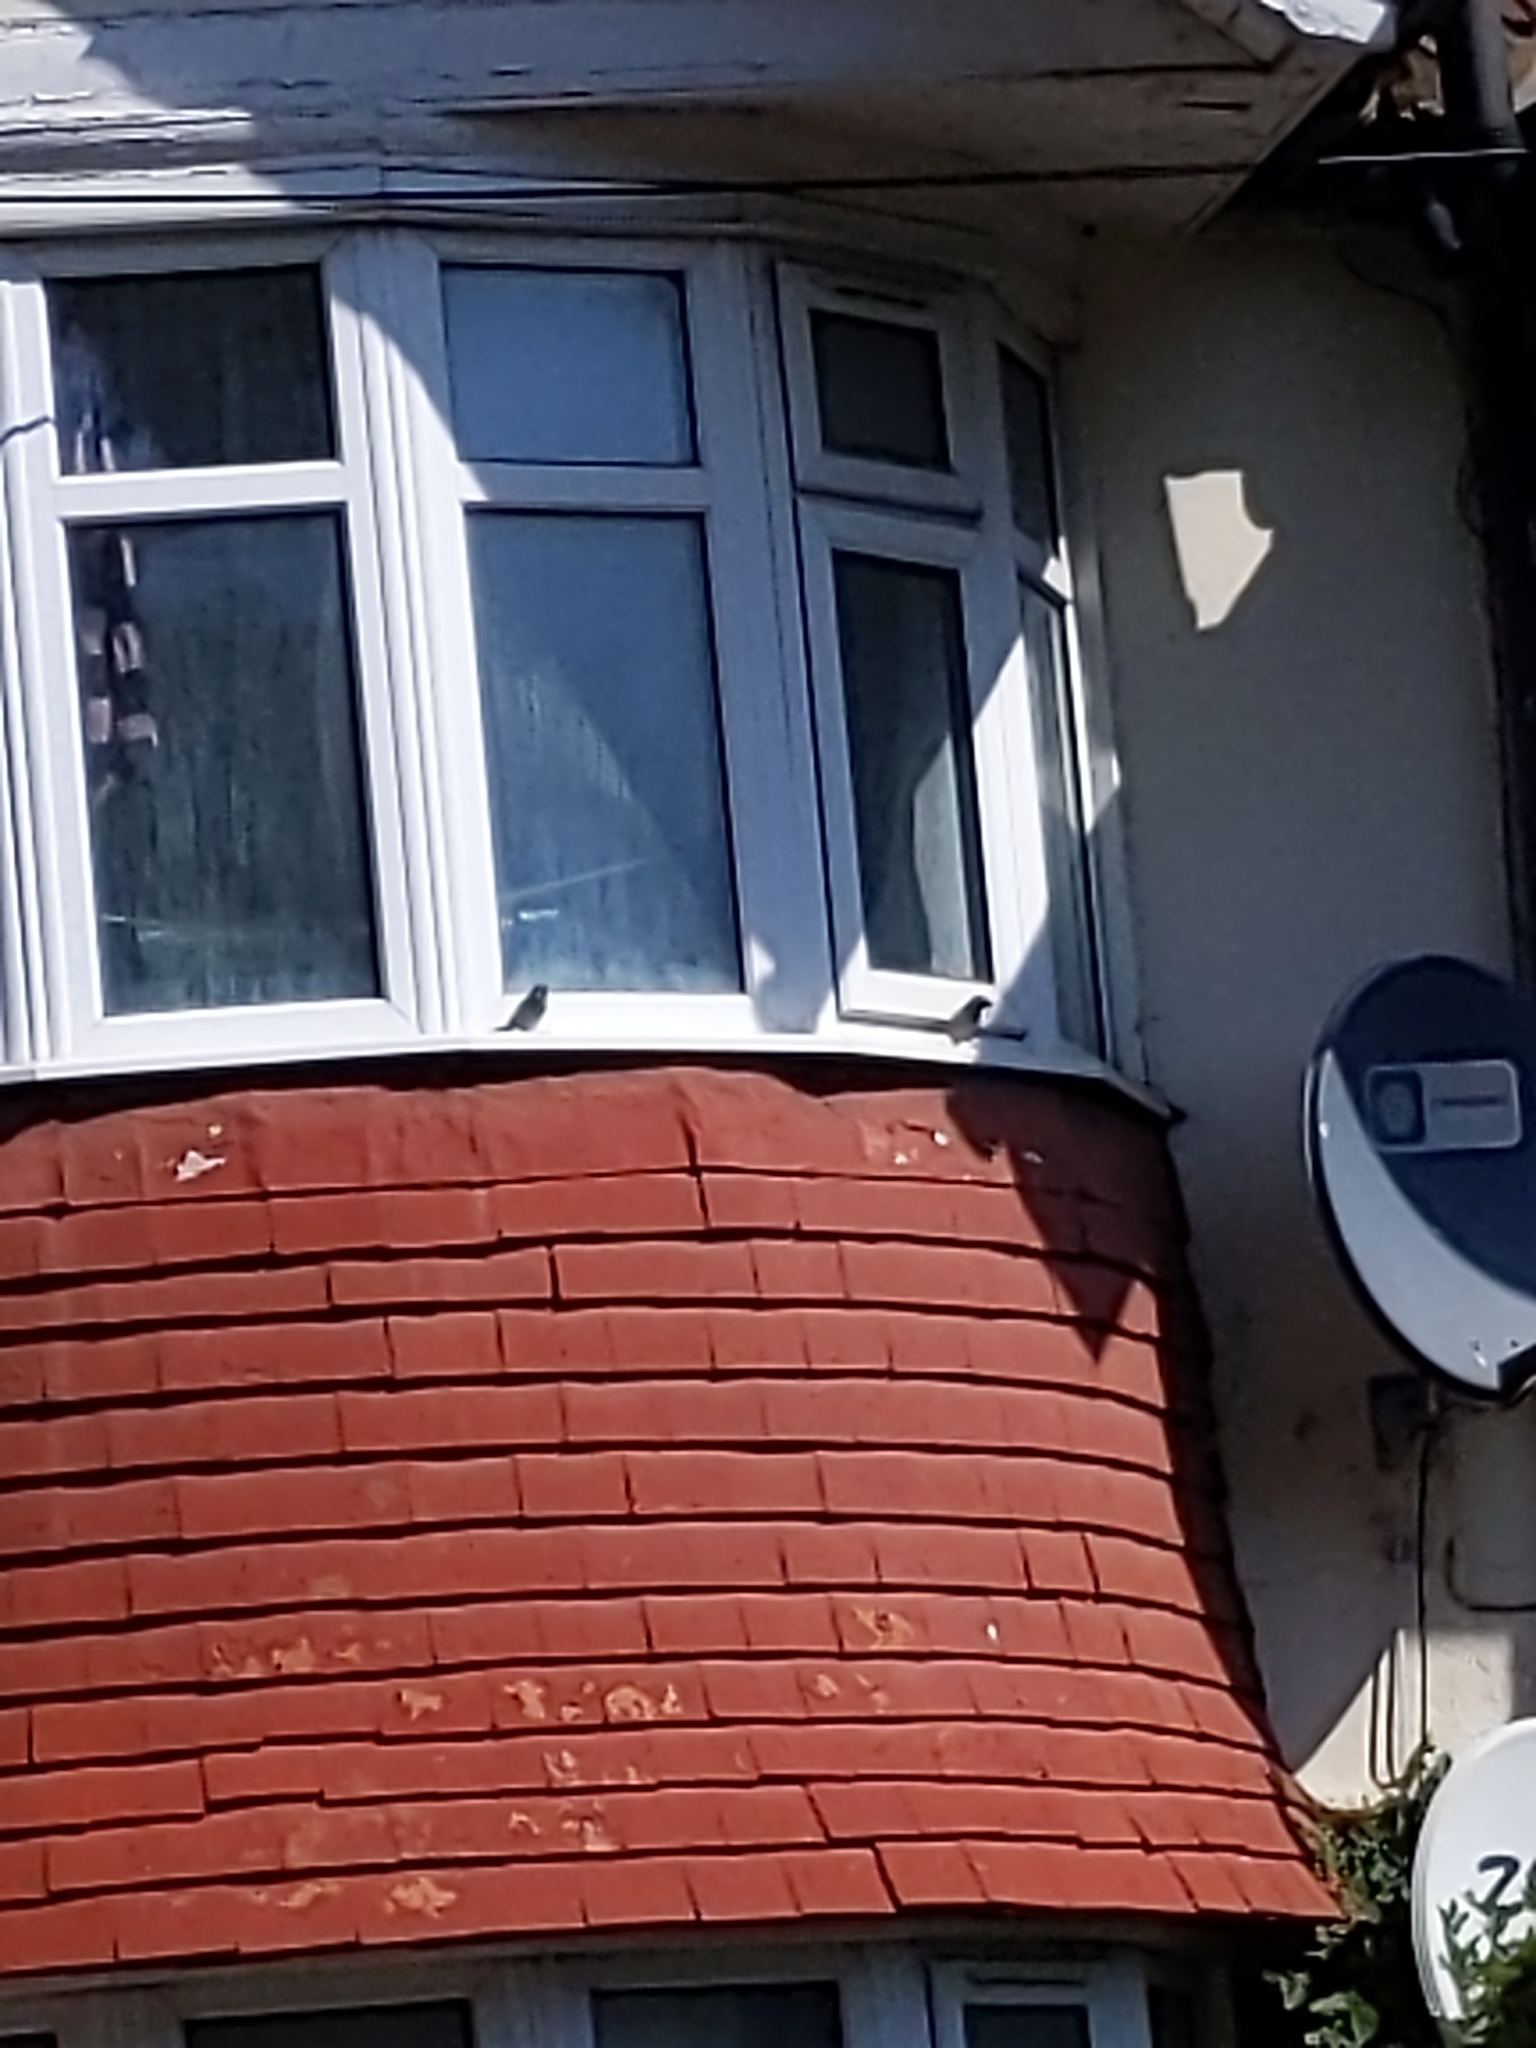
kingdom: Animalia
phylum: Chordata
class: Aves
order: Passeriformes
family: Passeridae
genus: Passer
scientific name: Passer domesticus
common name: House sparrow
